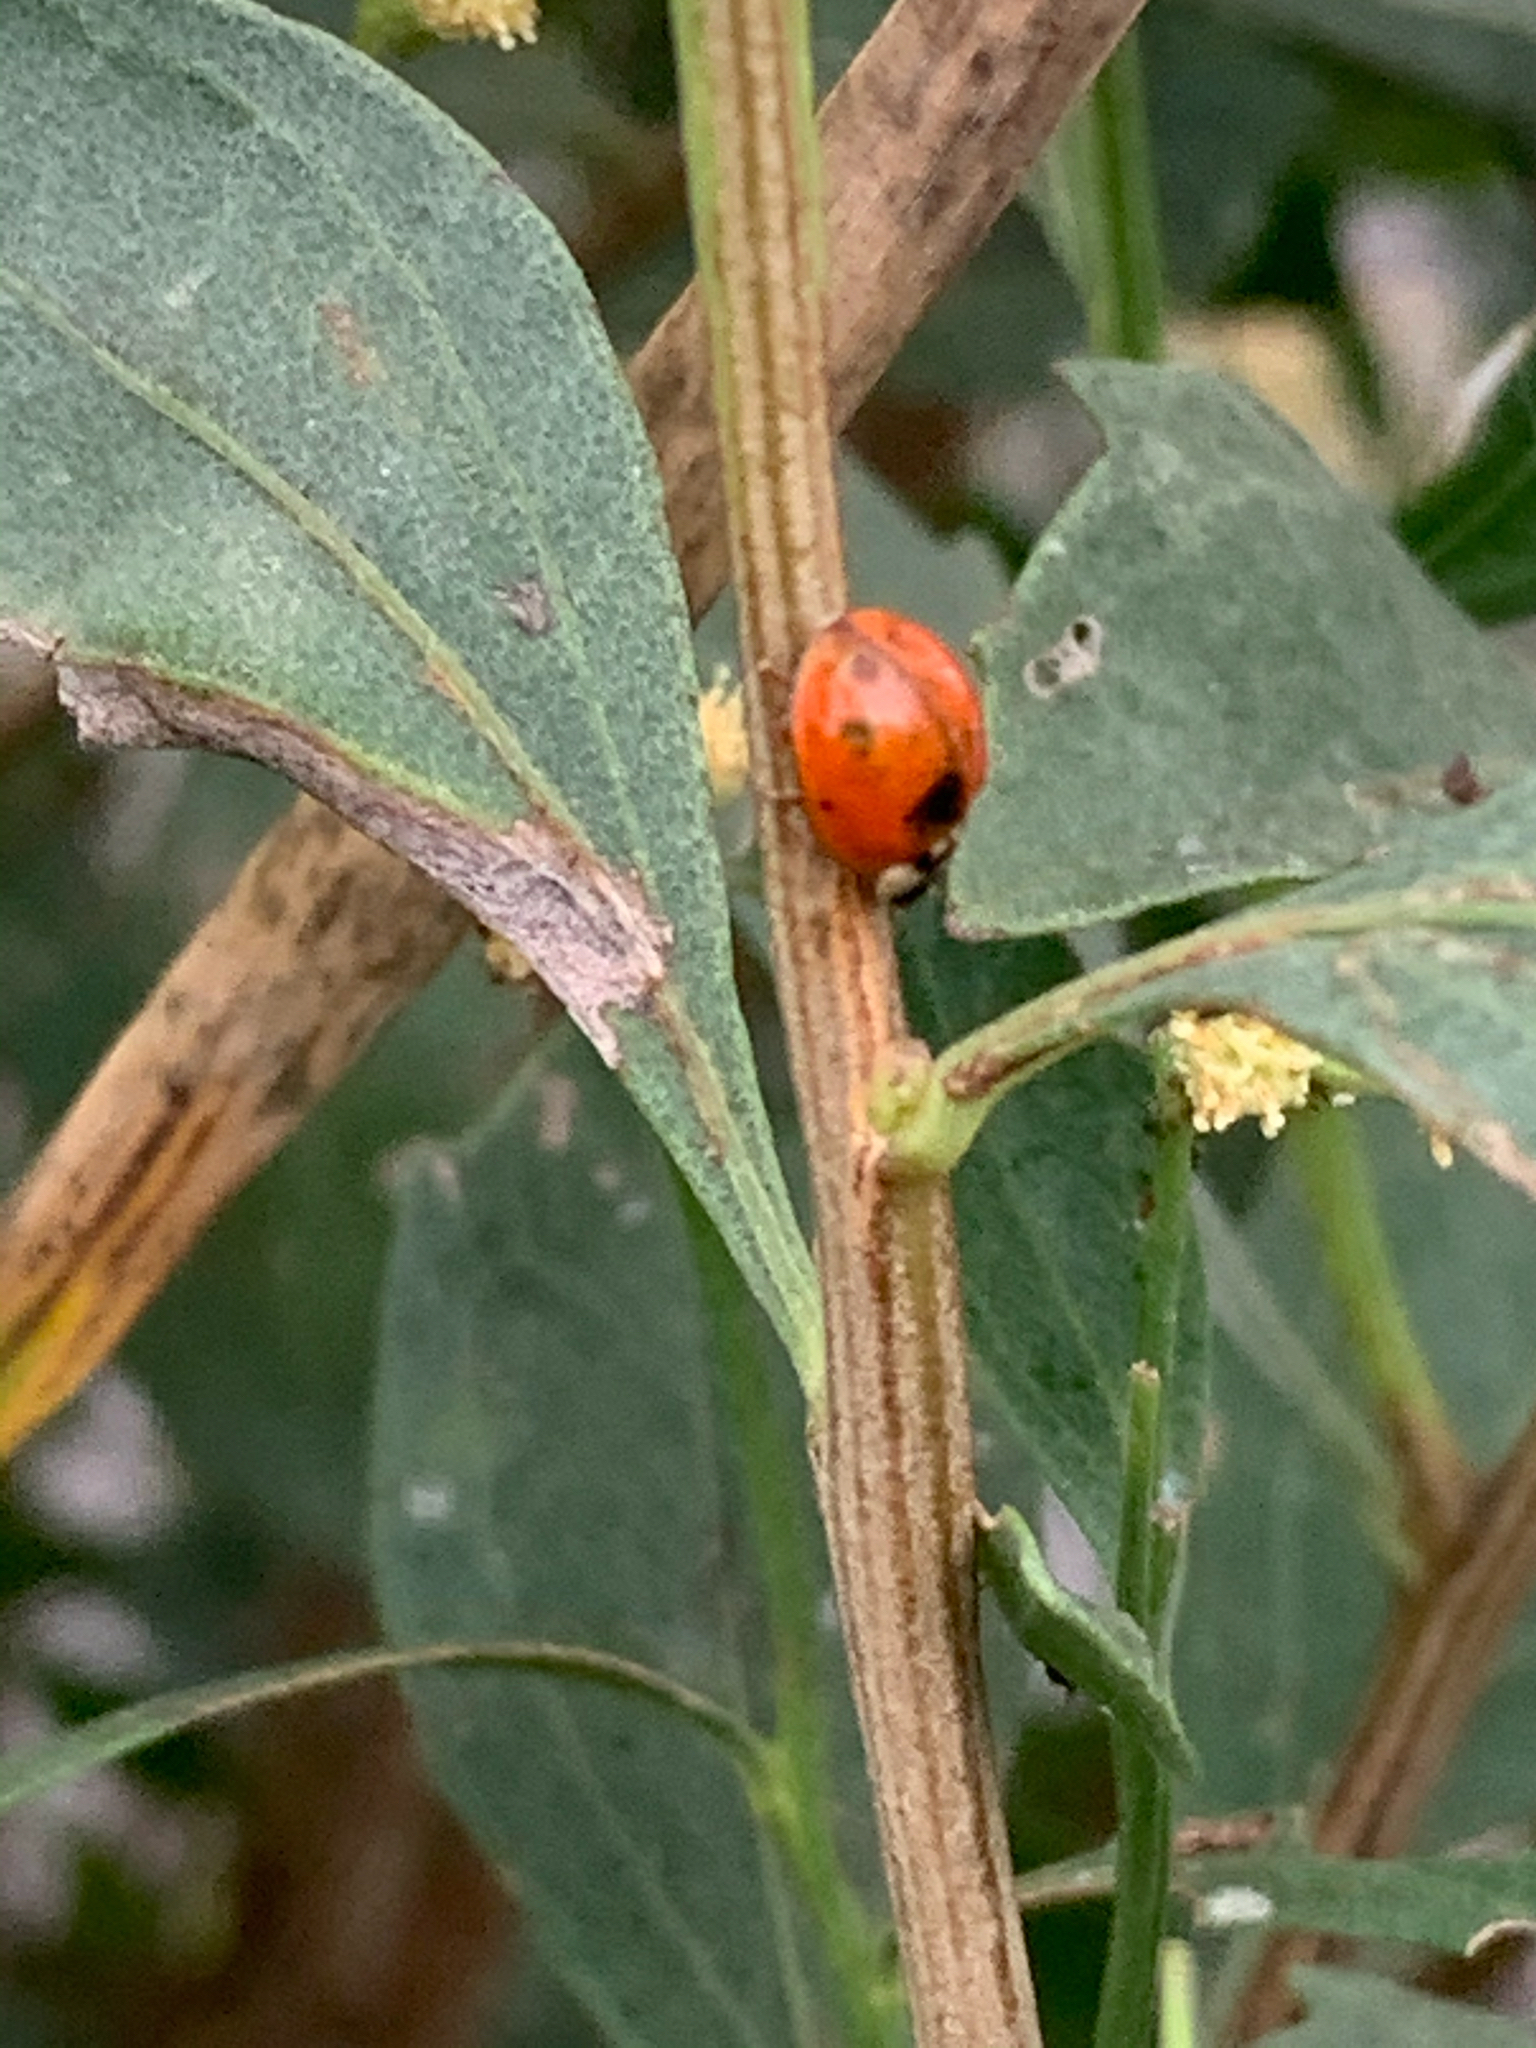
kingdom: Animalia
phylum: Arthropoda
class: Insecta
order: Coleoptera
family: Coccinellidae
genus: Harmonia
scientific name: Harmonia axyridis
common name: Harlequin ladybird
